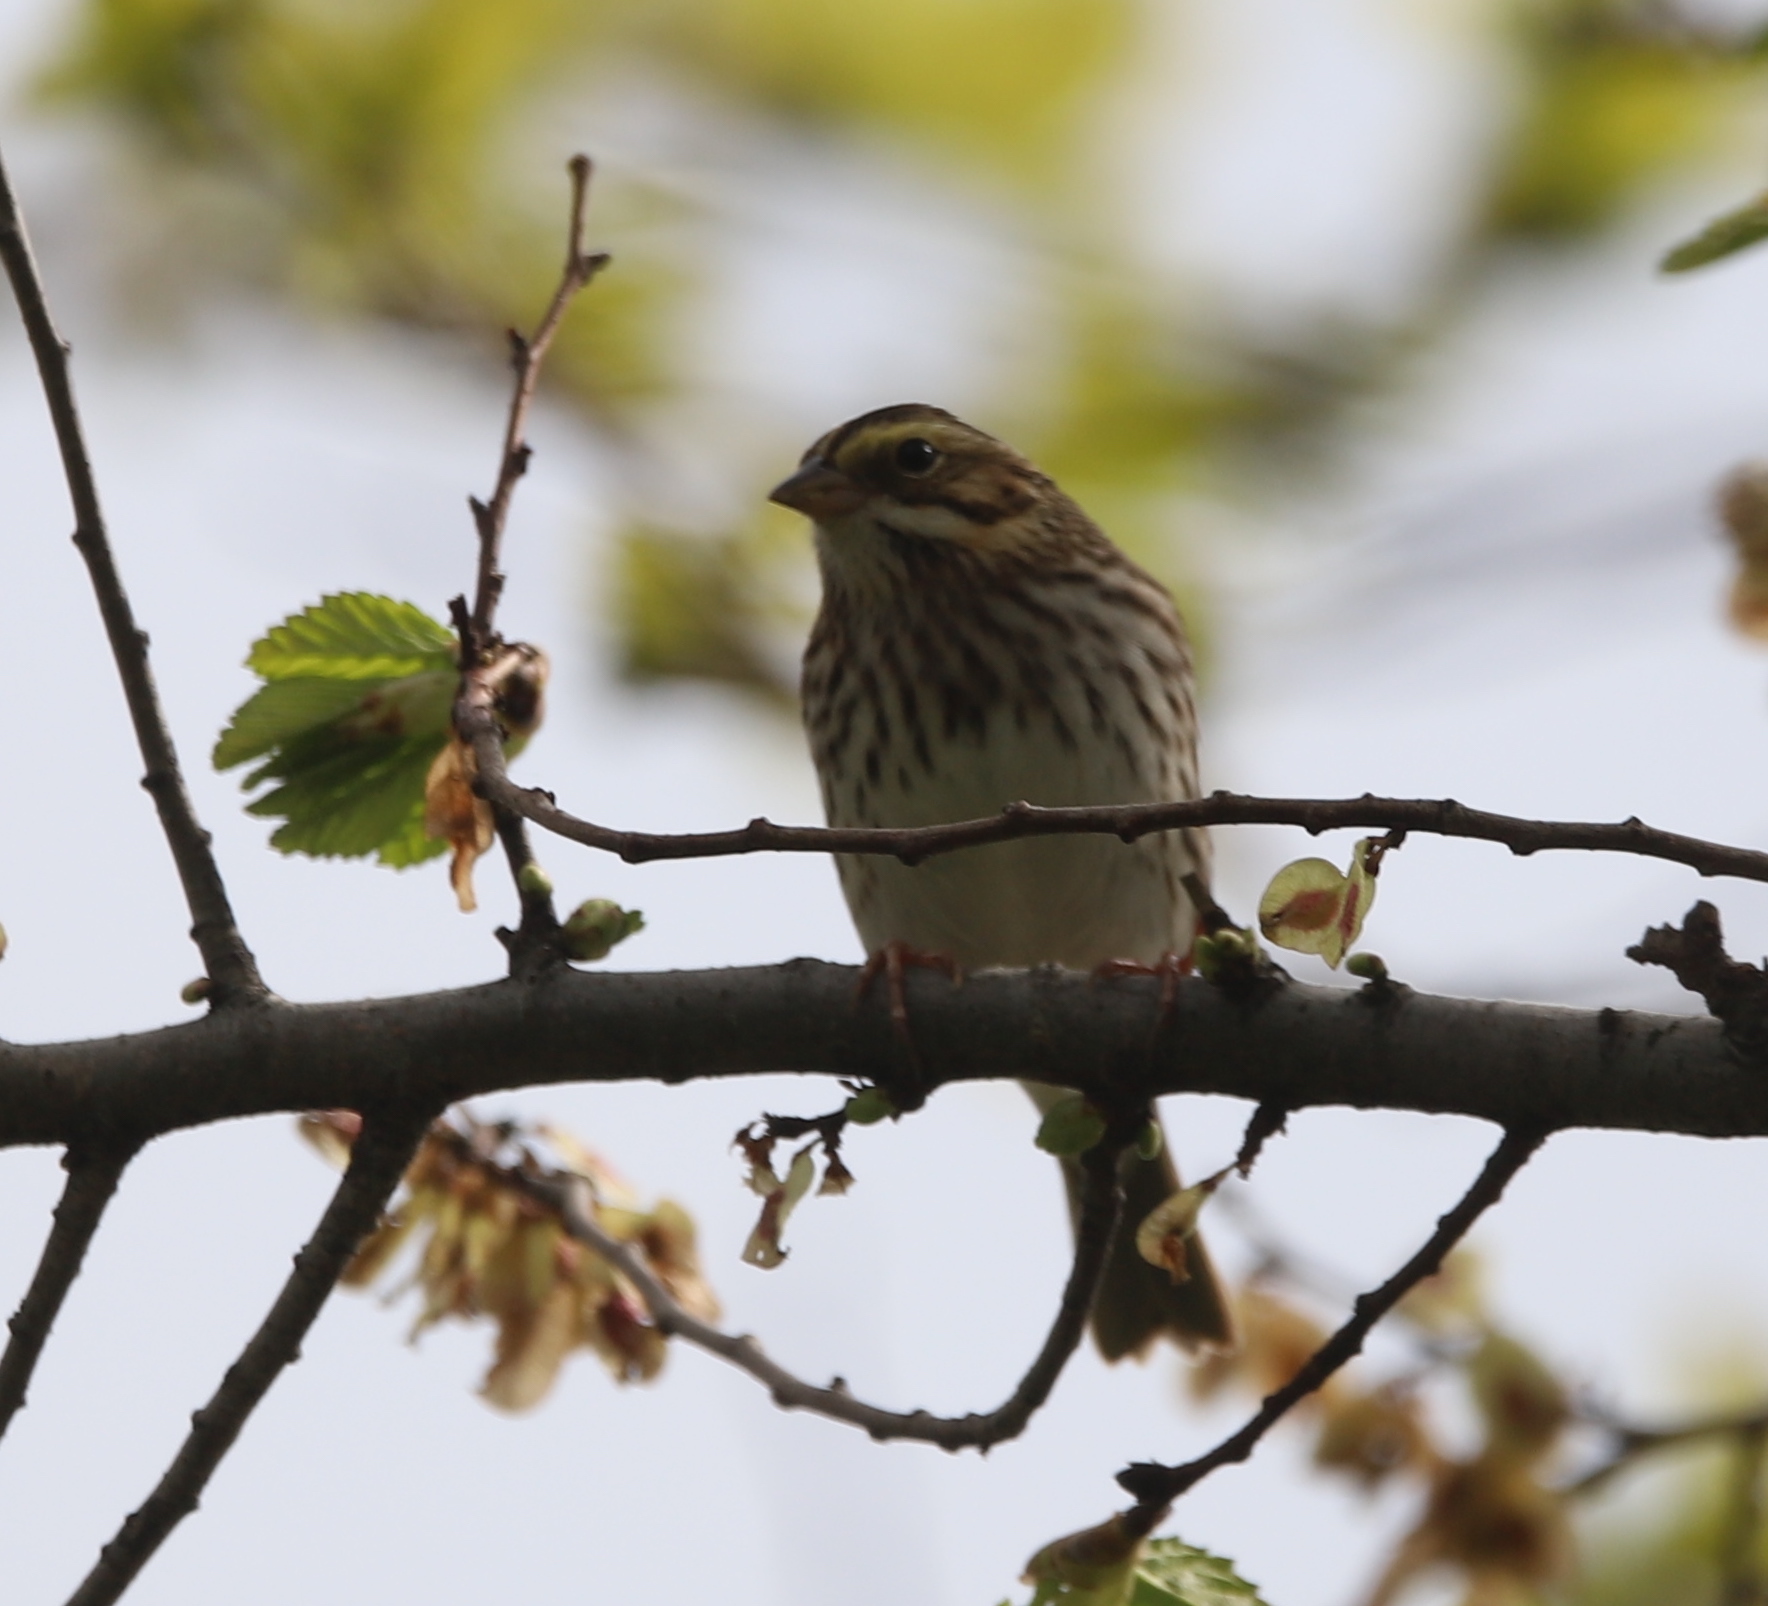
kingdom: Animalia
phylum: Chordata
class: Aves
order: Passeriformes
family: Passerellidae
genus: Passerculus
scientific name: Passerculus sandwichensis
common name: Savannah sparrow
